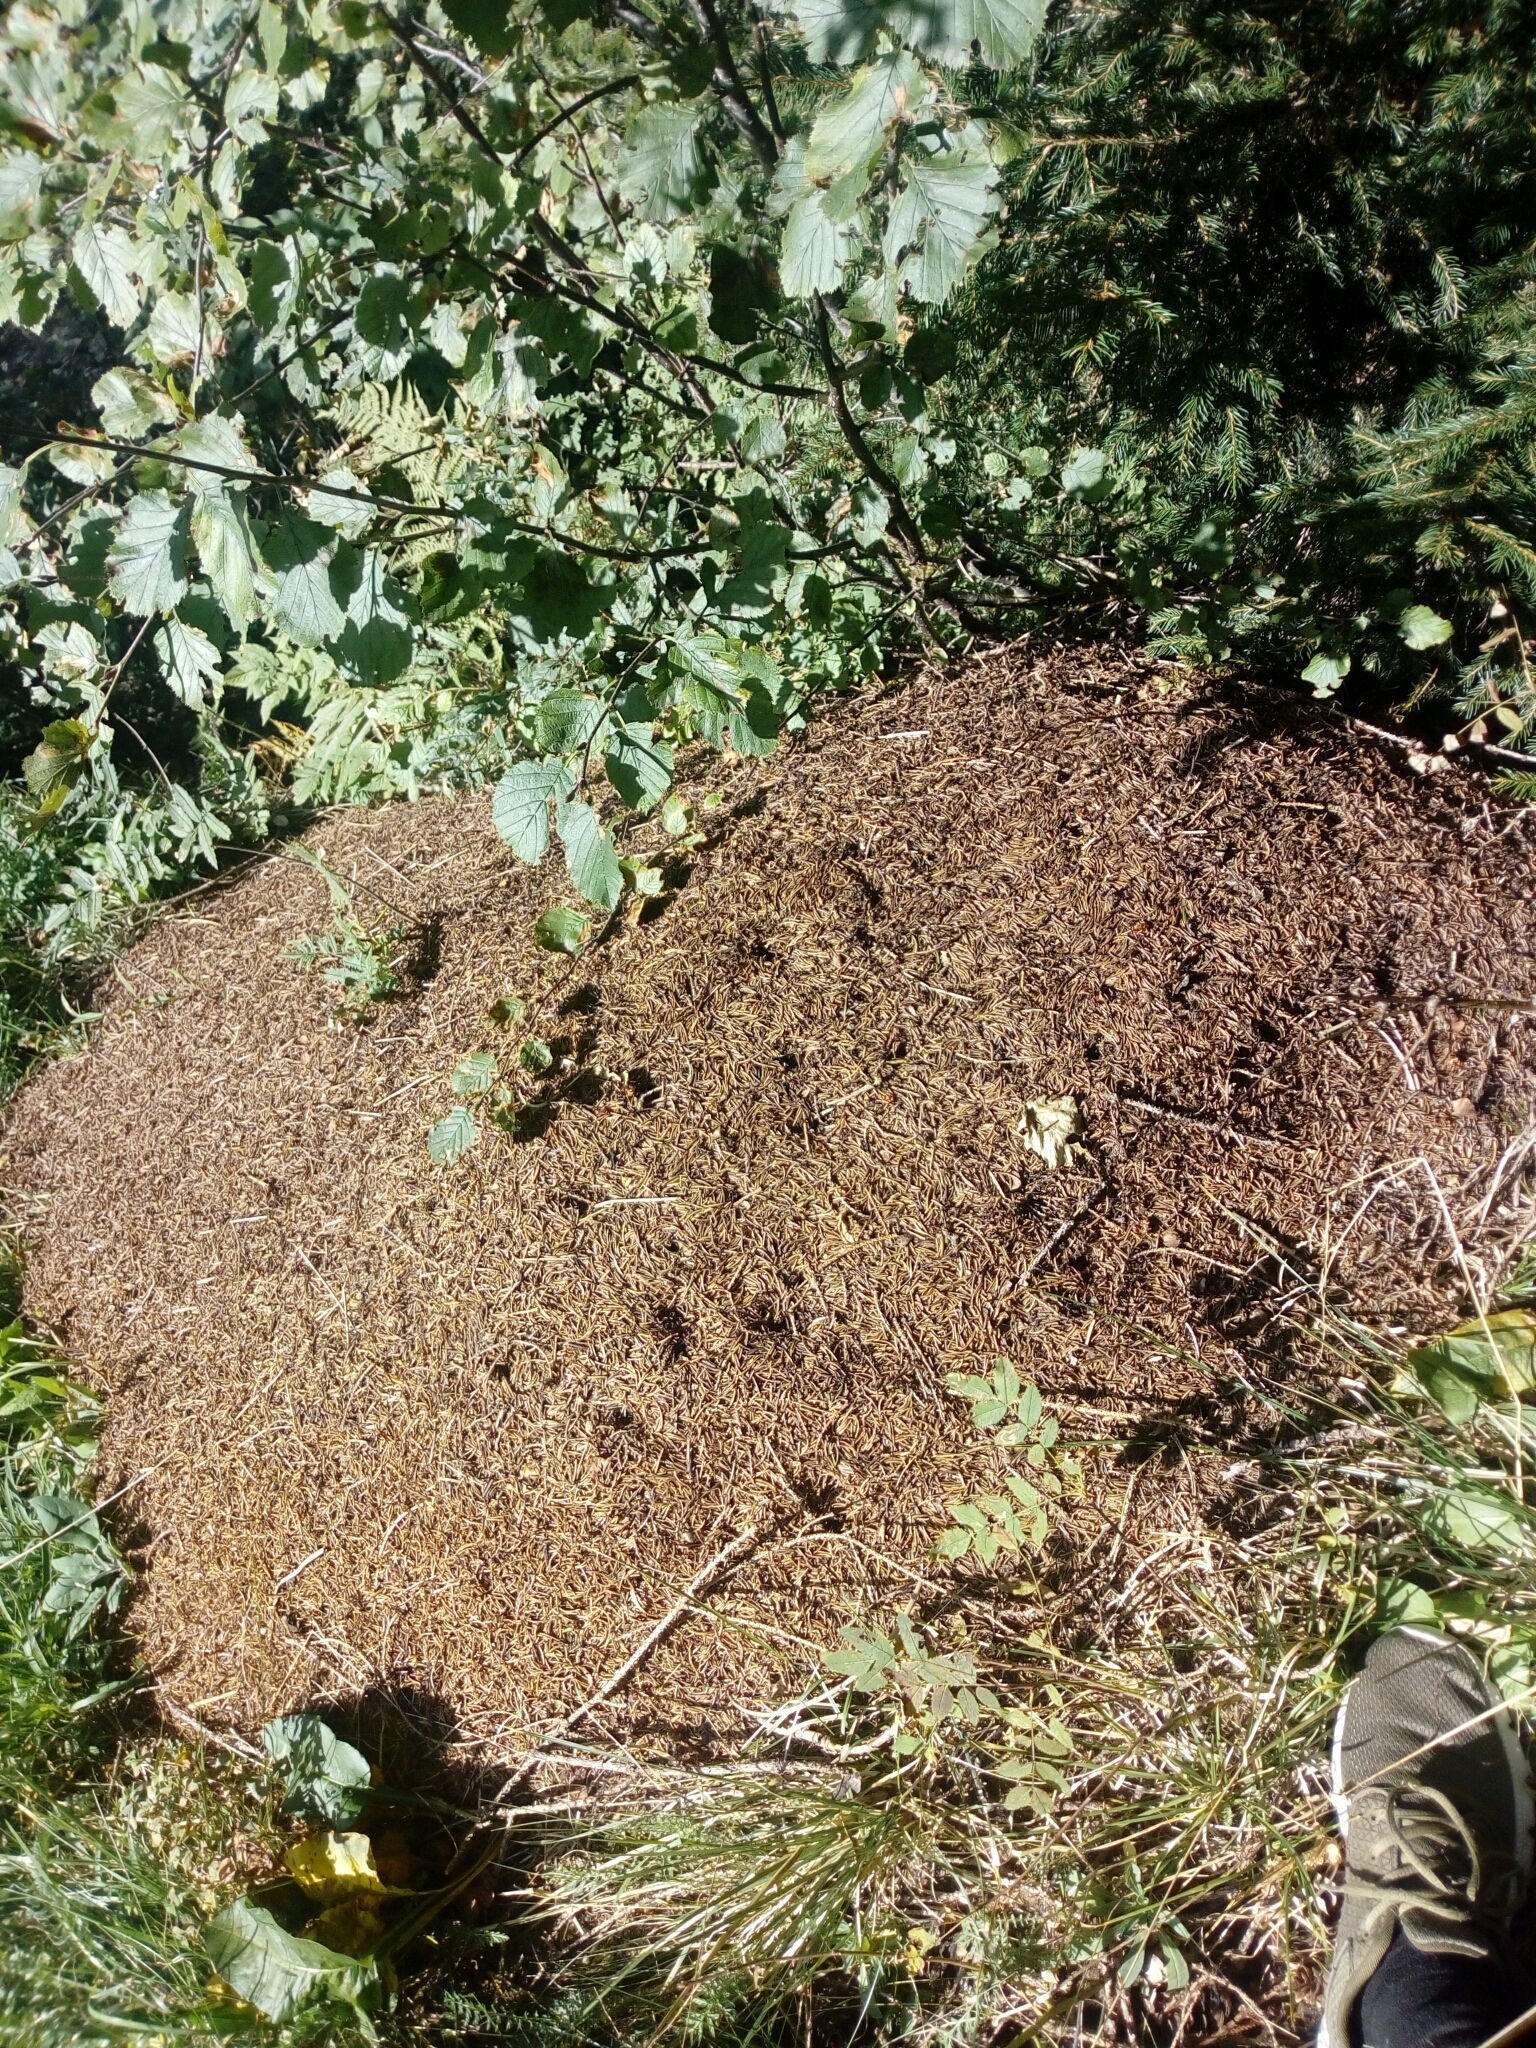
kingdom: Animalia
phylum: Arthropoda
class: Insecta
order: Hymenoptera
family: Formicidae
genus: Formica
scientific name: Formica rufa
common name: Red wood ant
